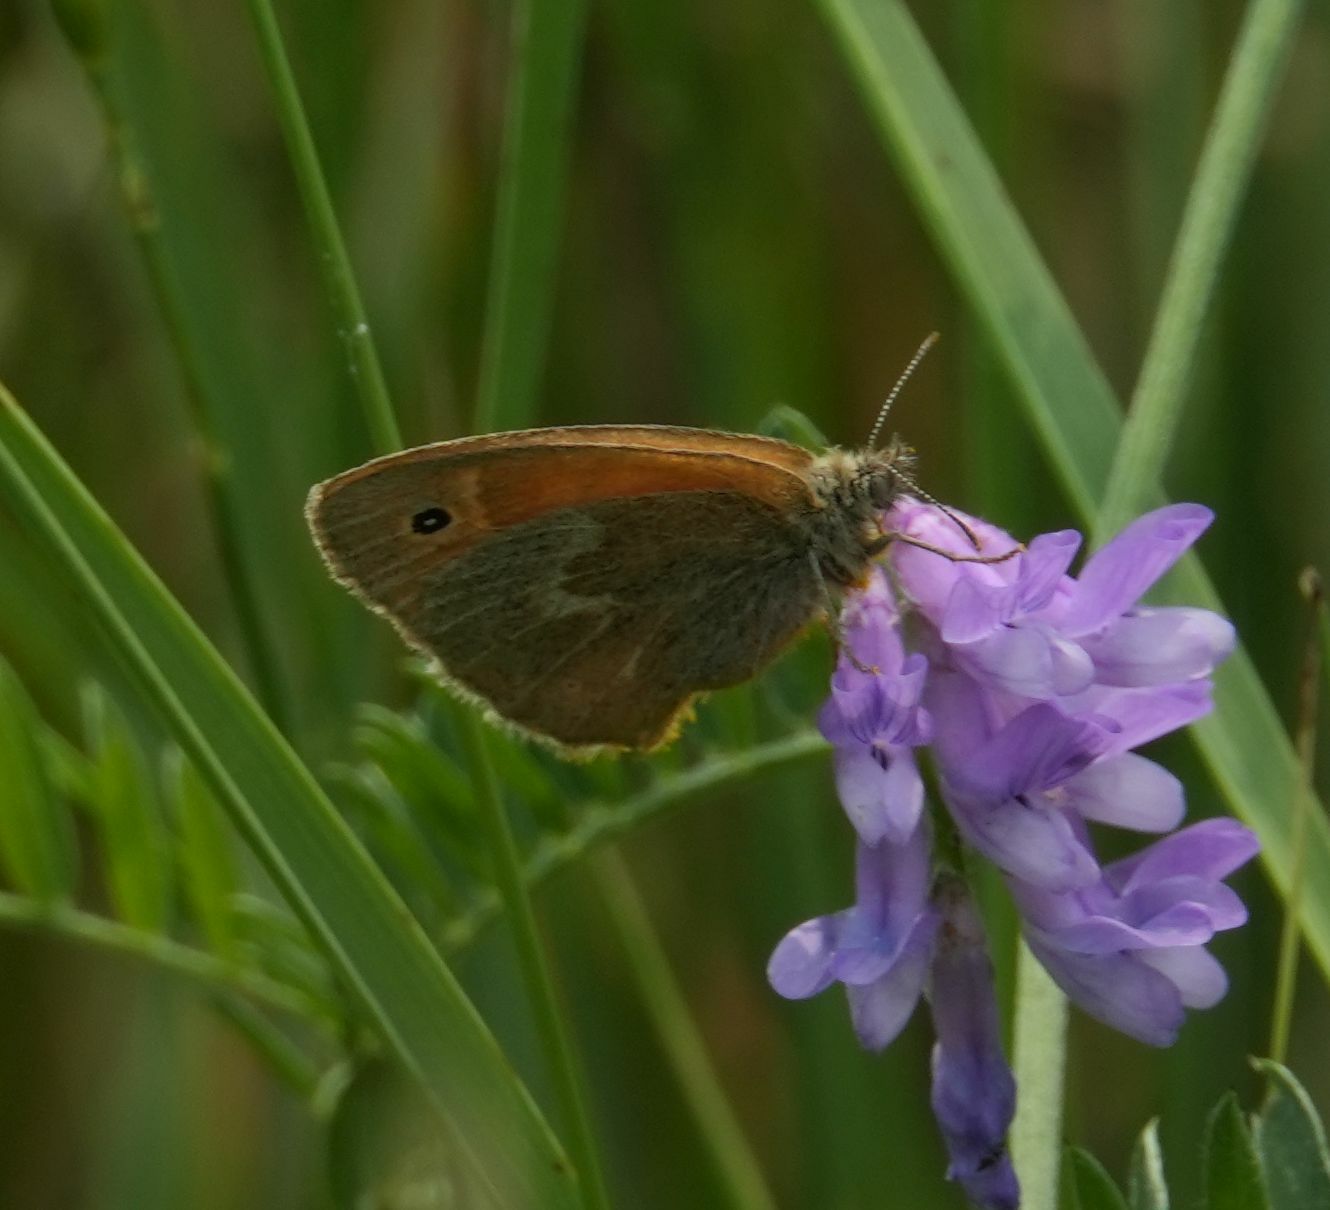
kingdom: Animalia
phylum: Arthropoda
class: Insecta
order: Lepidoptera
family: Nymphalidae
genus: Coenonympha
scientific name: Coenonympha california
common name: Common ringlet
